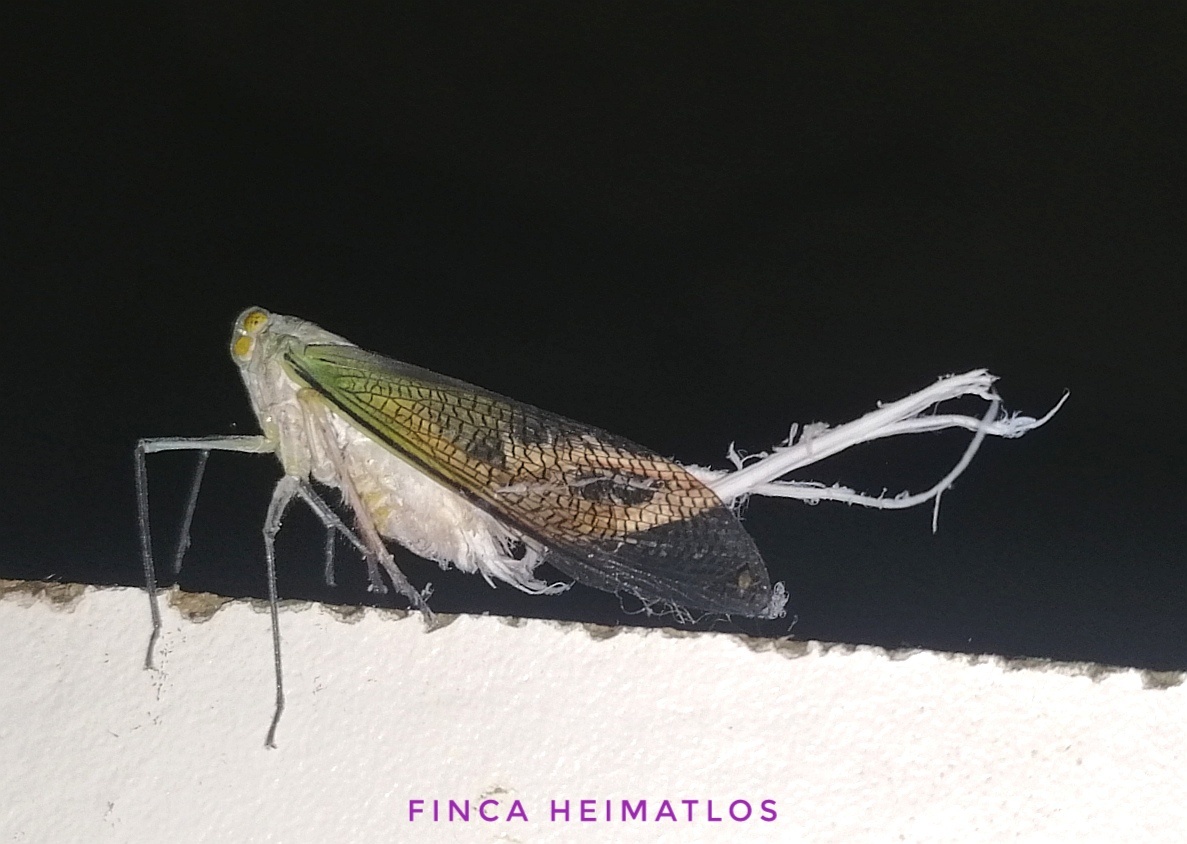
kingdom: Animalia
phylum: Arthropoda
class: Insecta
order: Hemiptera
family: Fulgoridae
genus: Pterodictya
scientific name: Pterodictya reticularis
